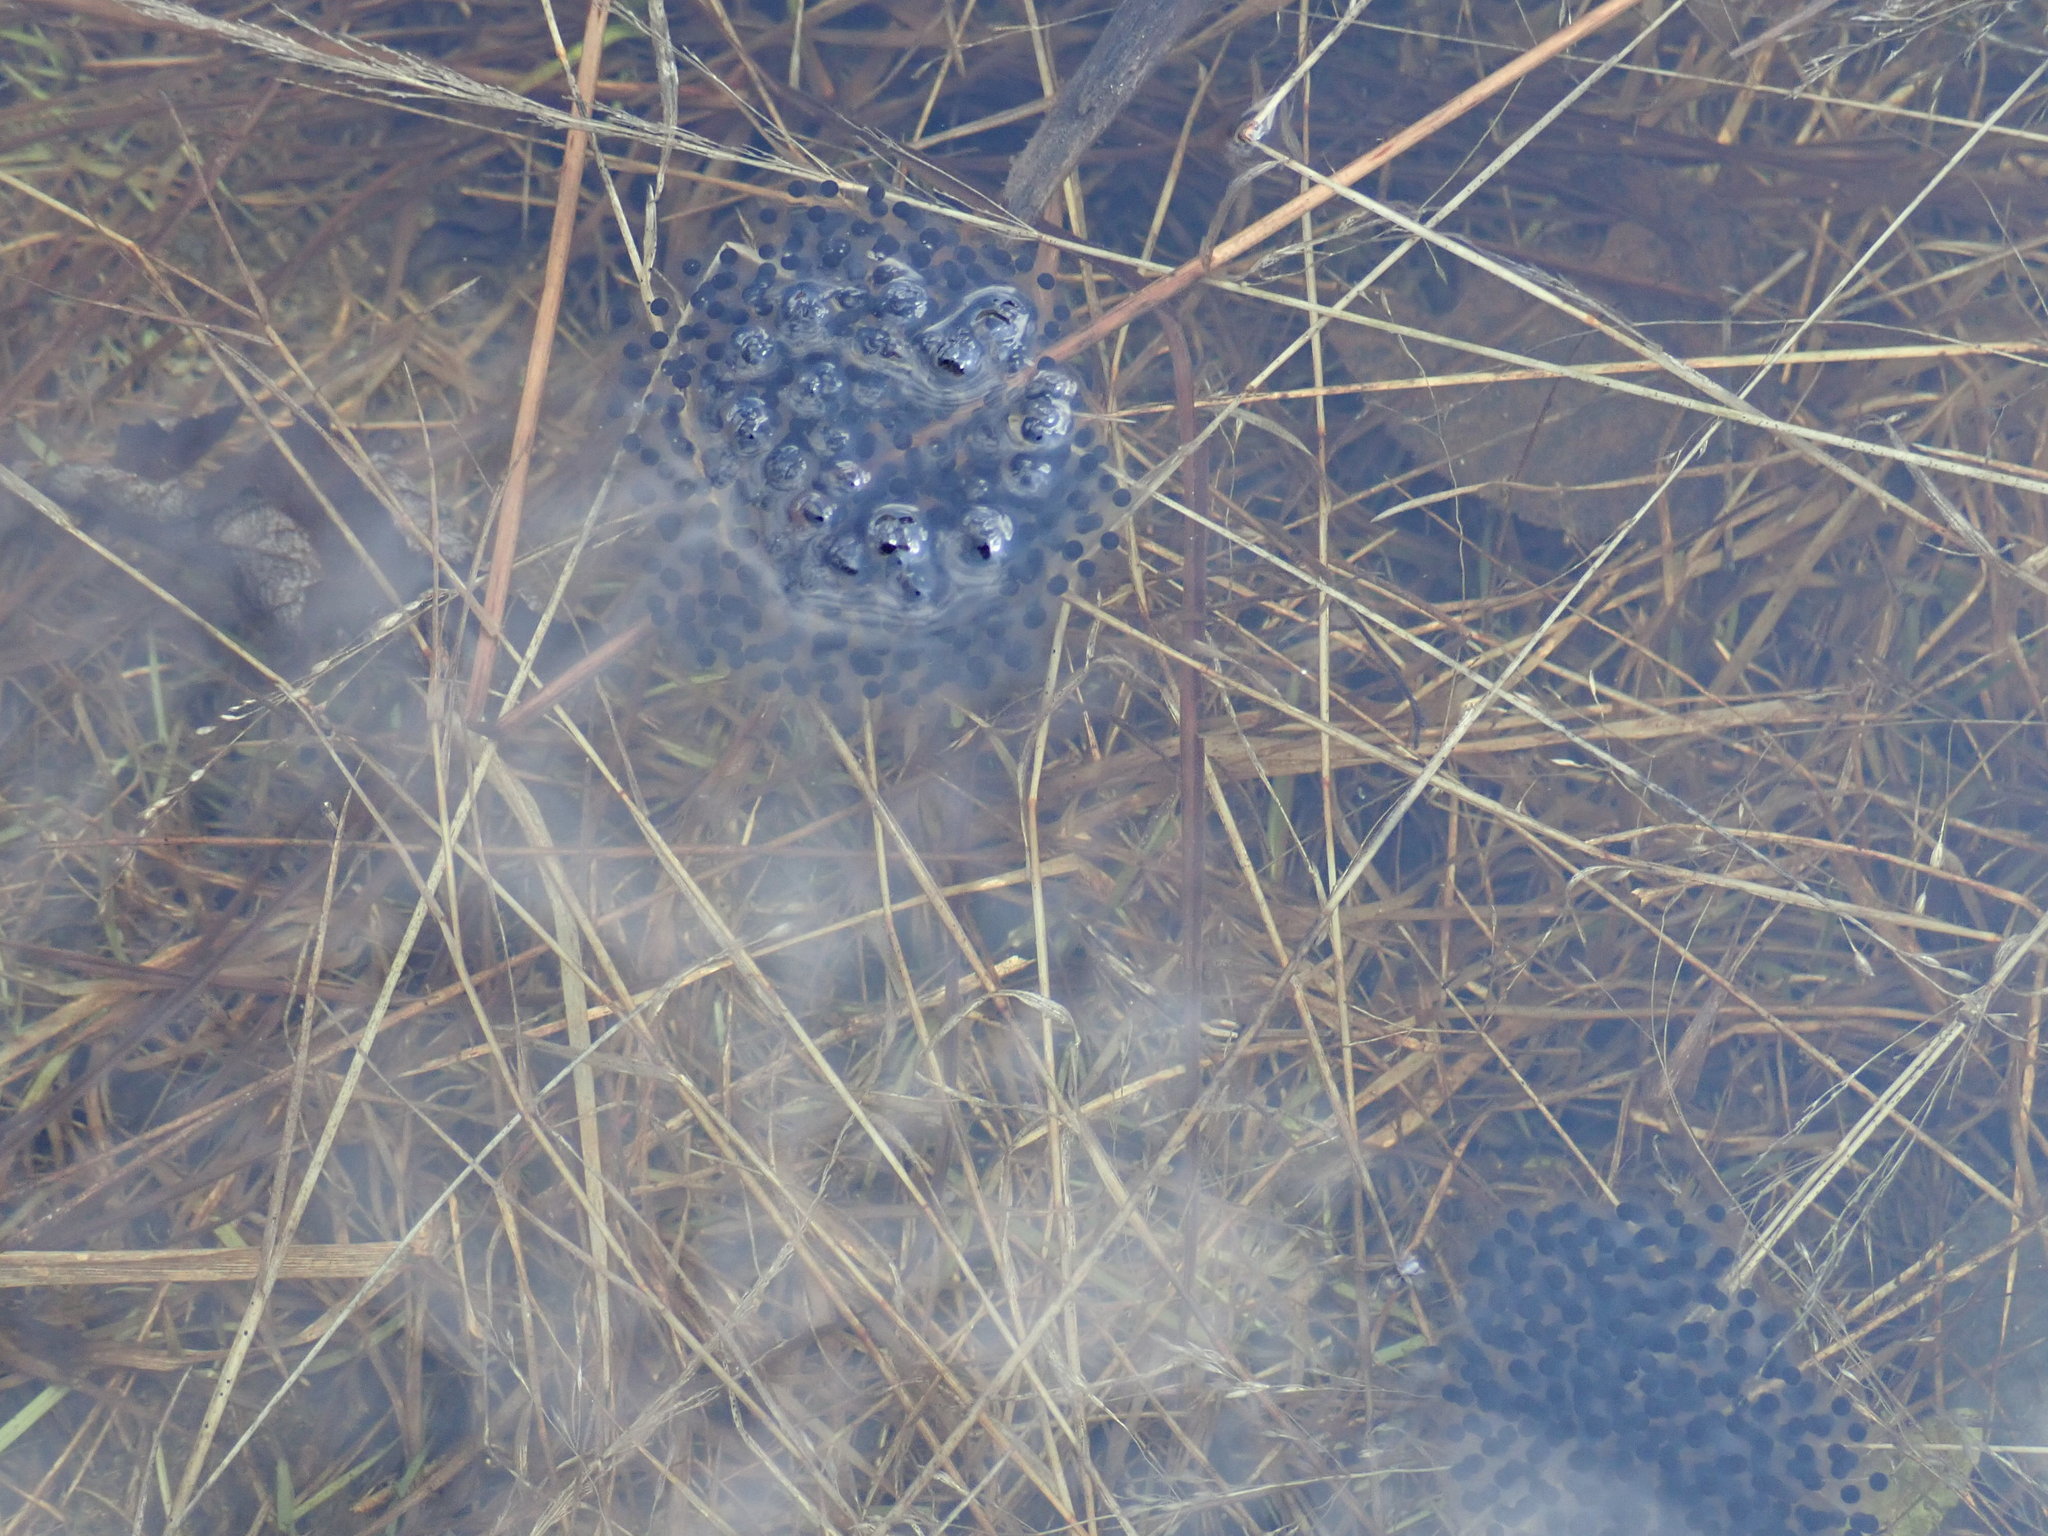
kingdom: Animalia
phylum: Chordata
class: Amphibia
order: Anura
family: Ranidae
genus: Lithobates
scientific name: Lithobates sylvaticus
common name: Wood frog
